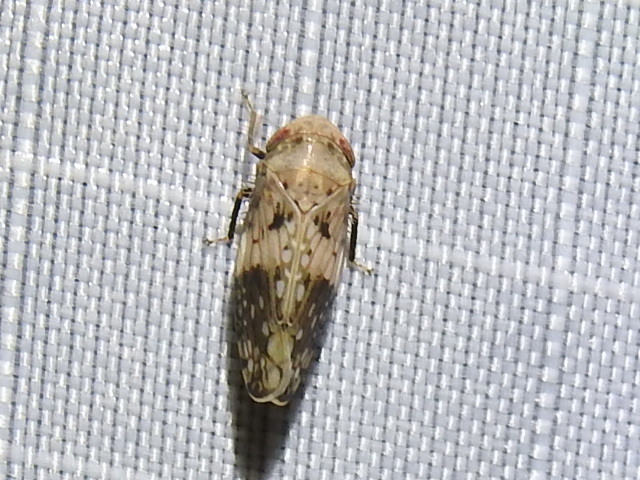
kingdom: Animalia
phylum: Arthropoda
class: Insecta
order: Hemiptera
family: Cicadellidae
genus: Menosoma
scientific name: Menosoma cinctum
